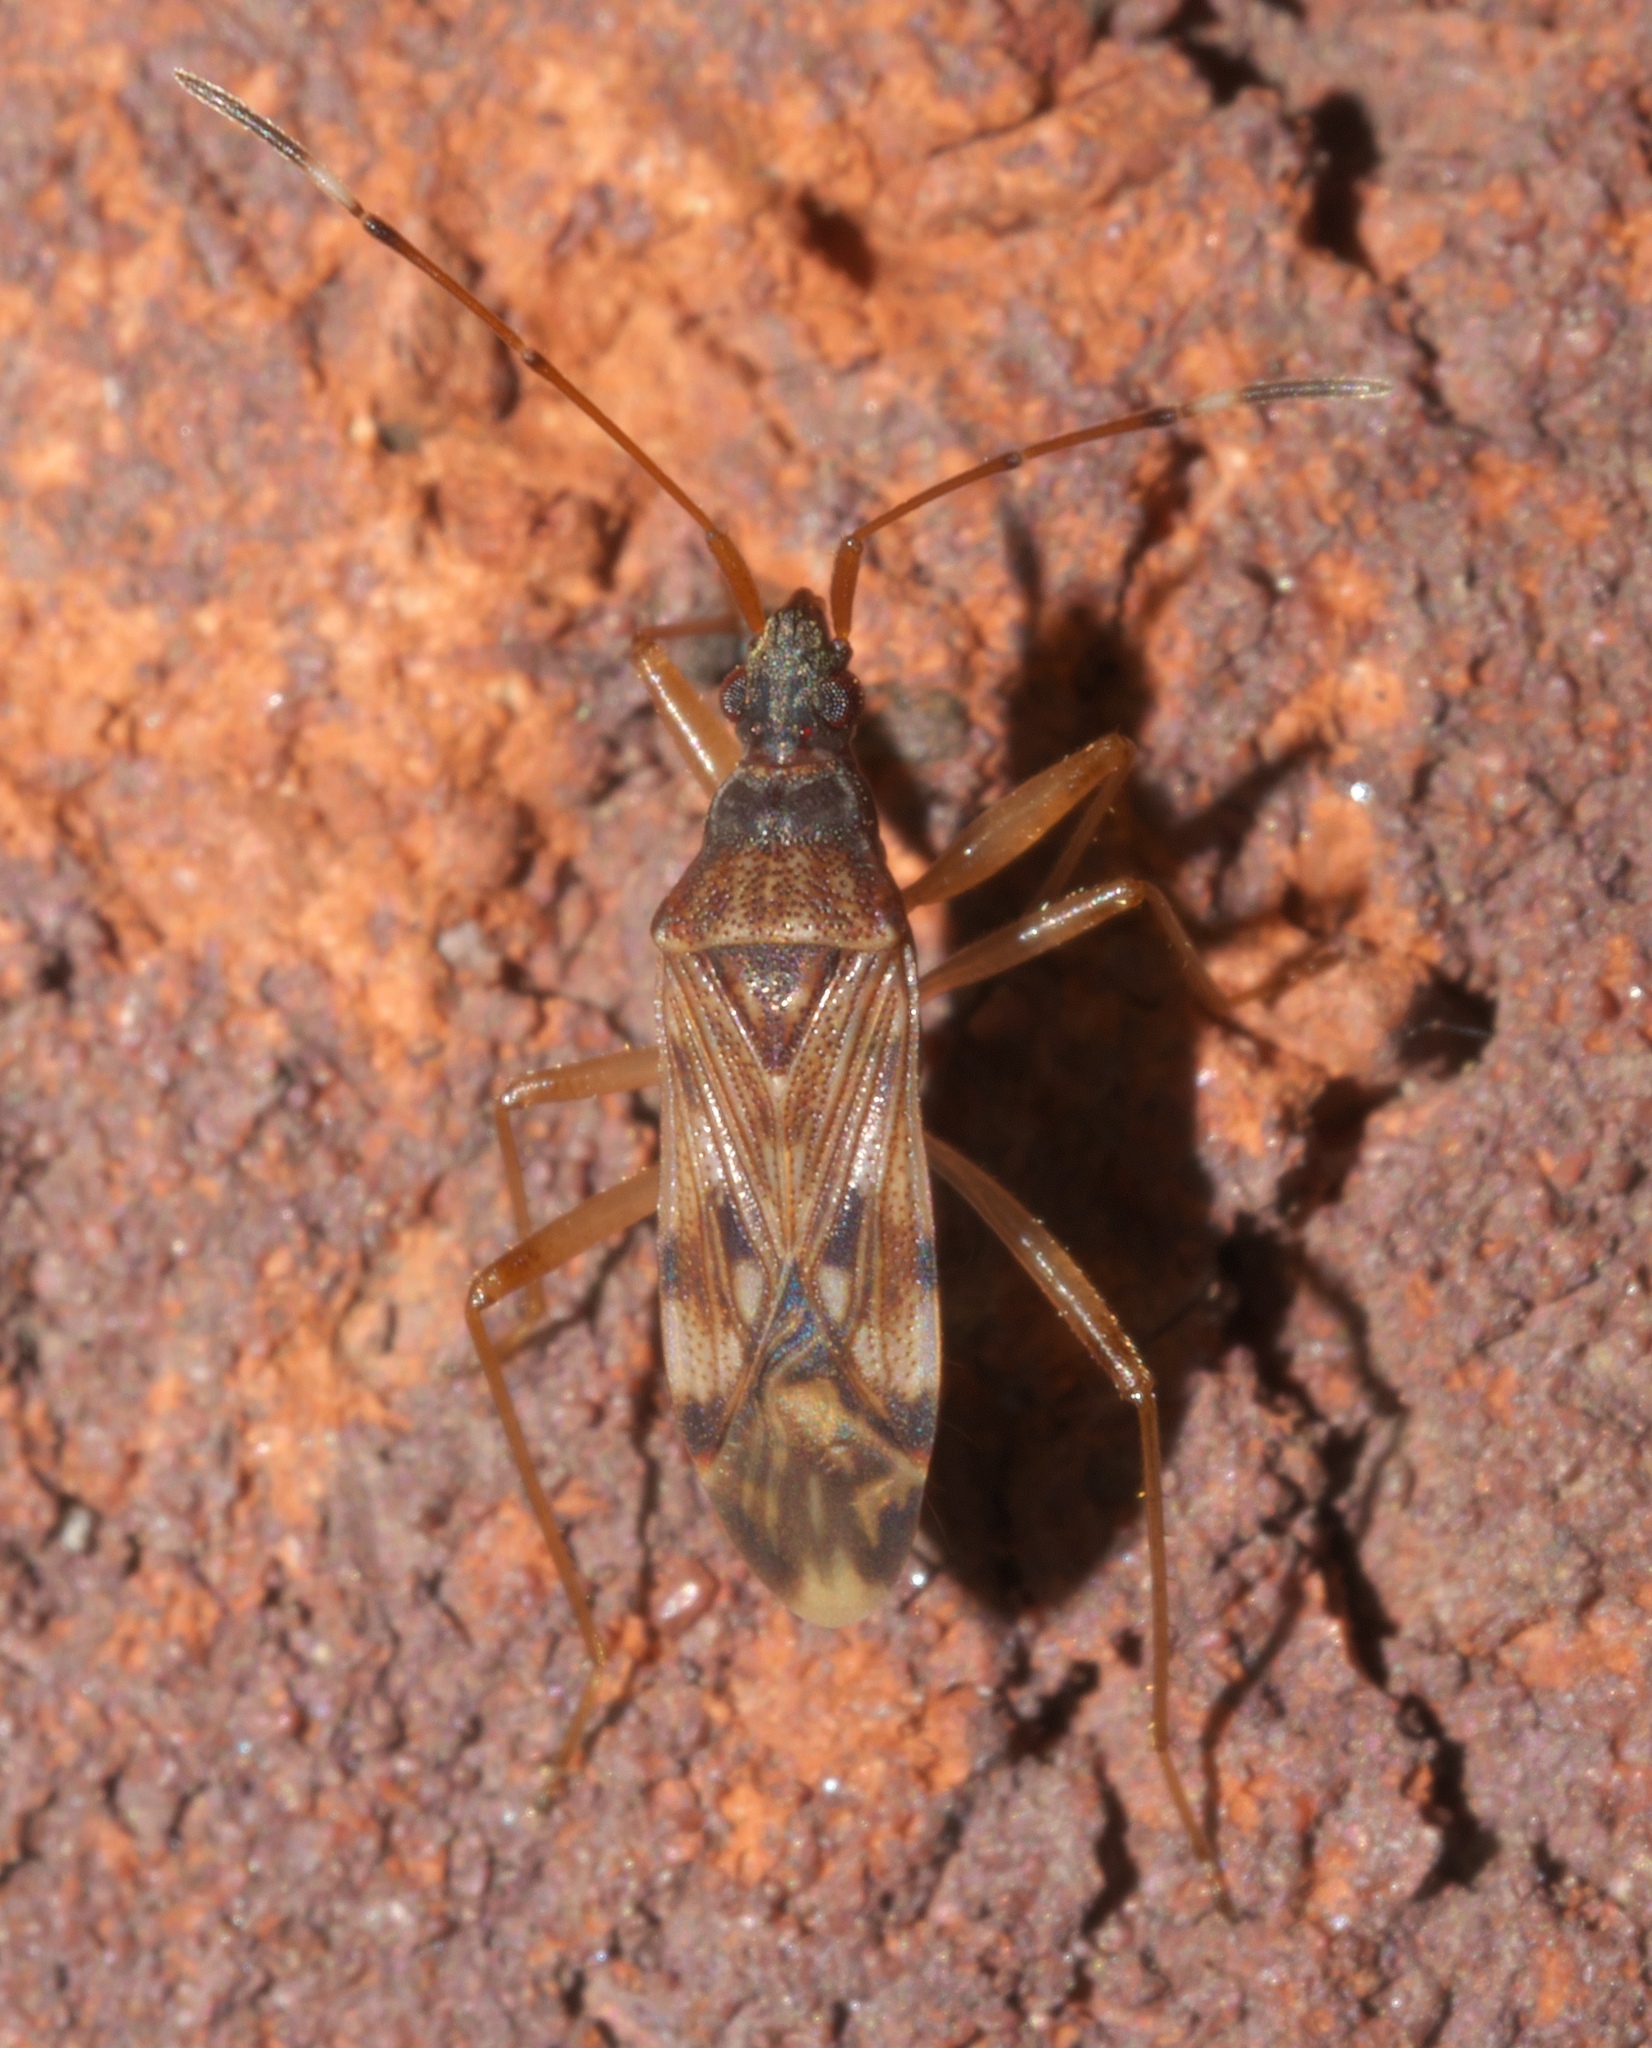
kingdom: Animalia
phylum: Arthropoda
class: Insecta
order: Hemiptera
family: Rhyparochromidae
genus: Ozophora
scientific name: Ozophora picturata
